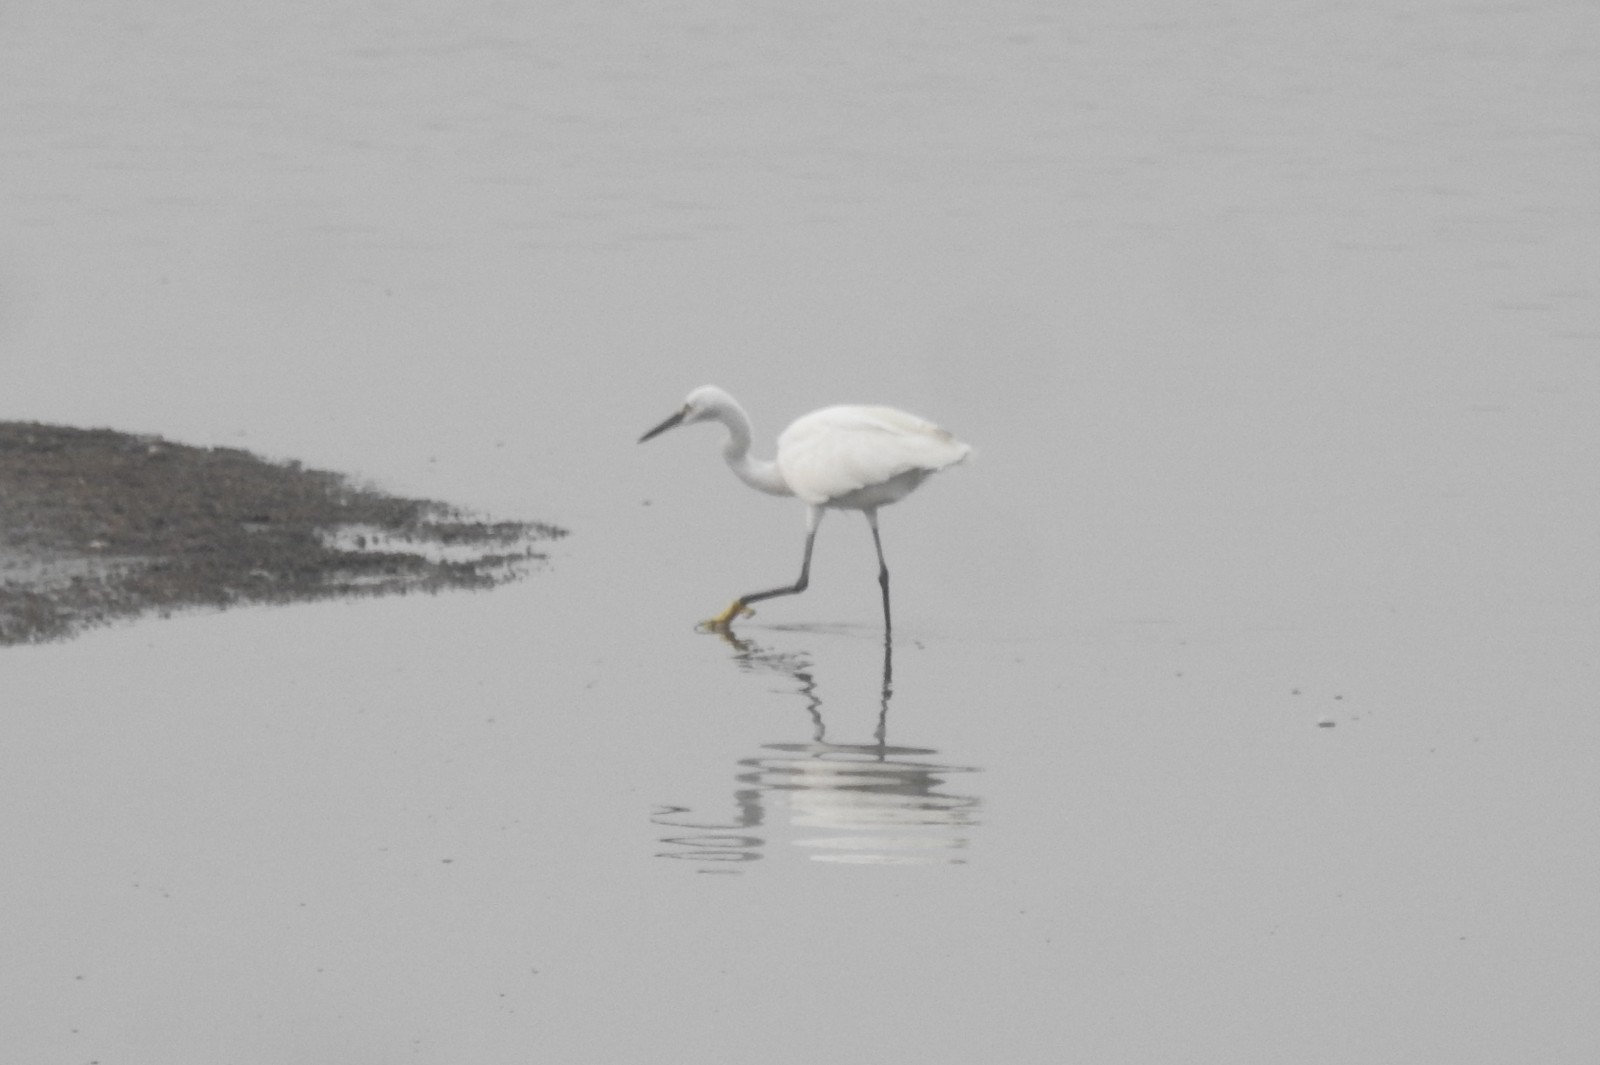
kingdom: Animalia
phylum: Chordata
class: Aves
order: Pelecaniformes
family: Ardeidae
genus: Egretta
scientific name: Egretta garzetta
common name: Little egret
